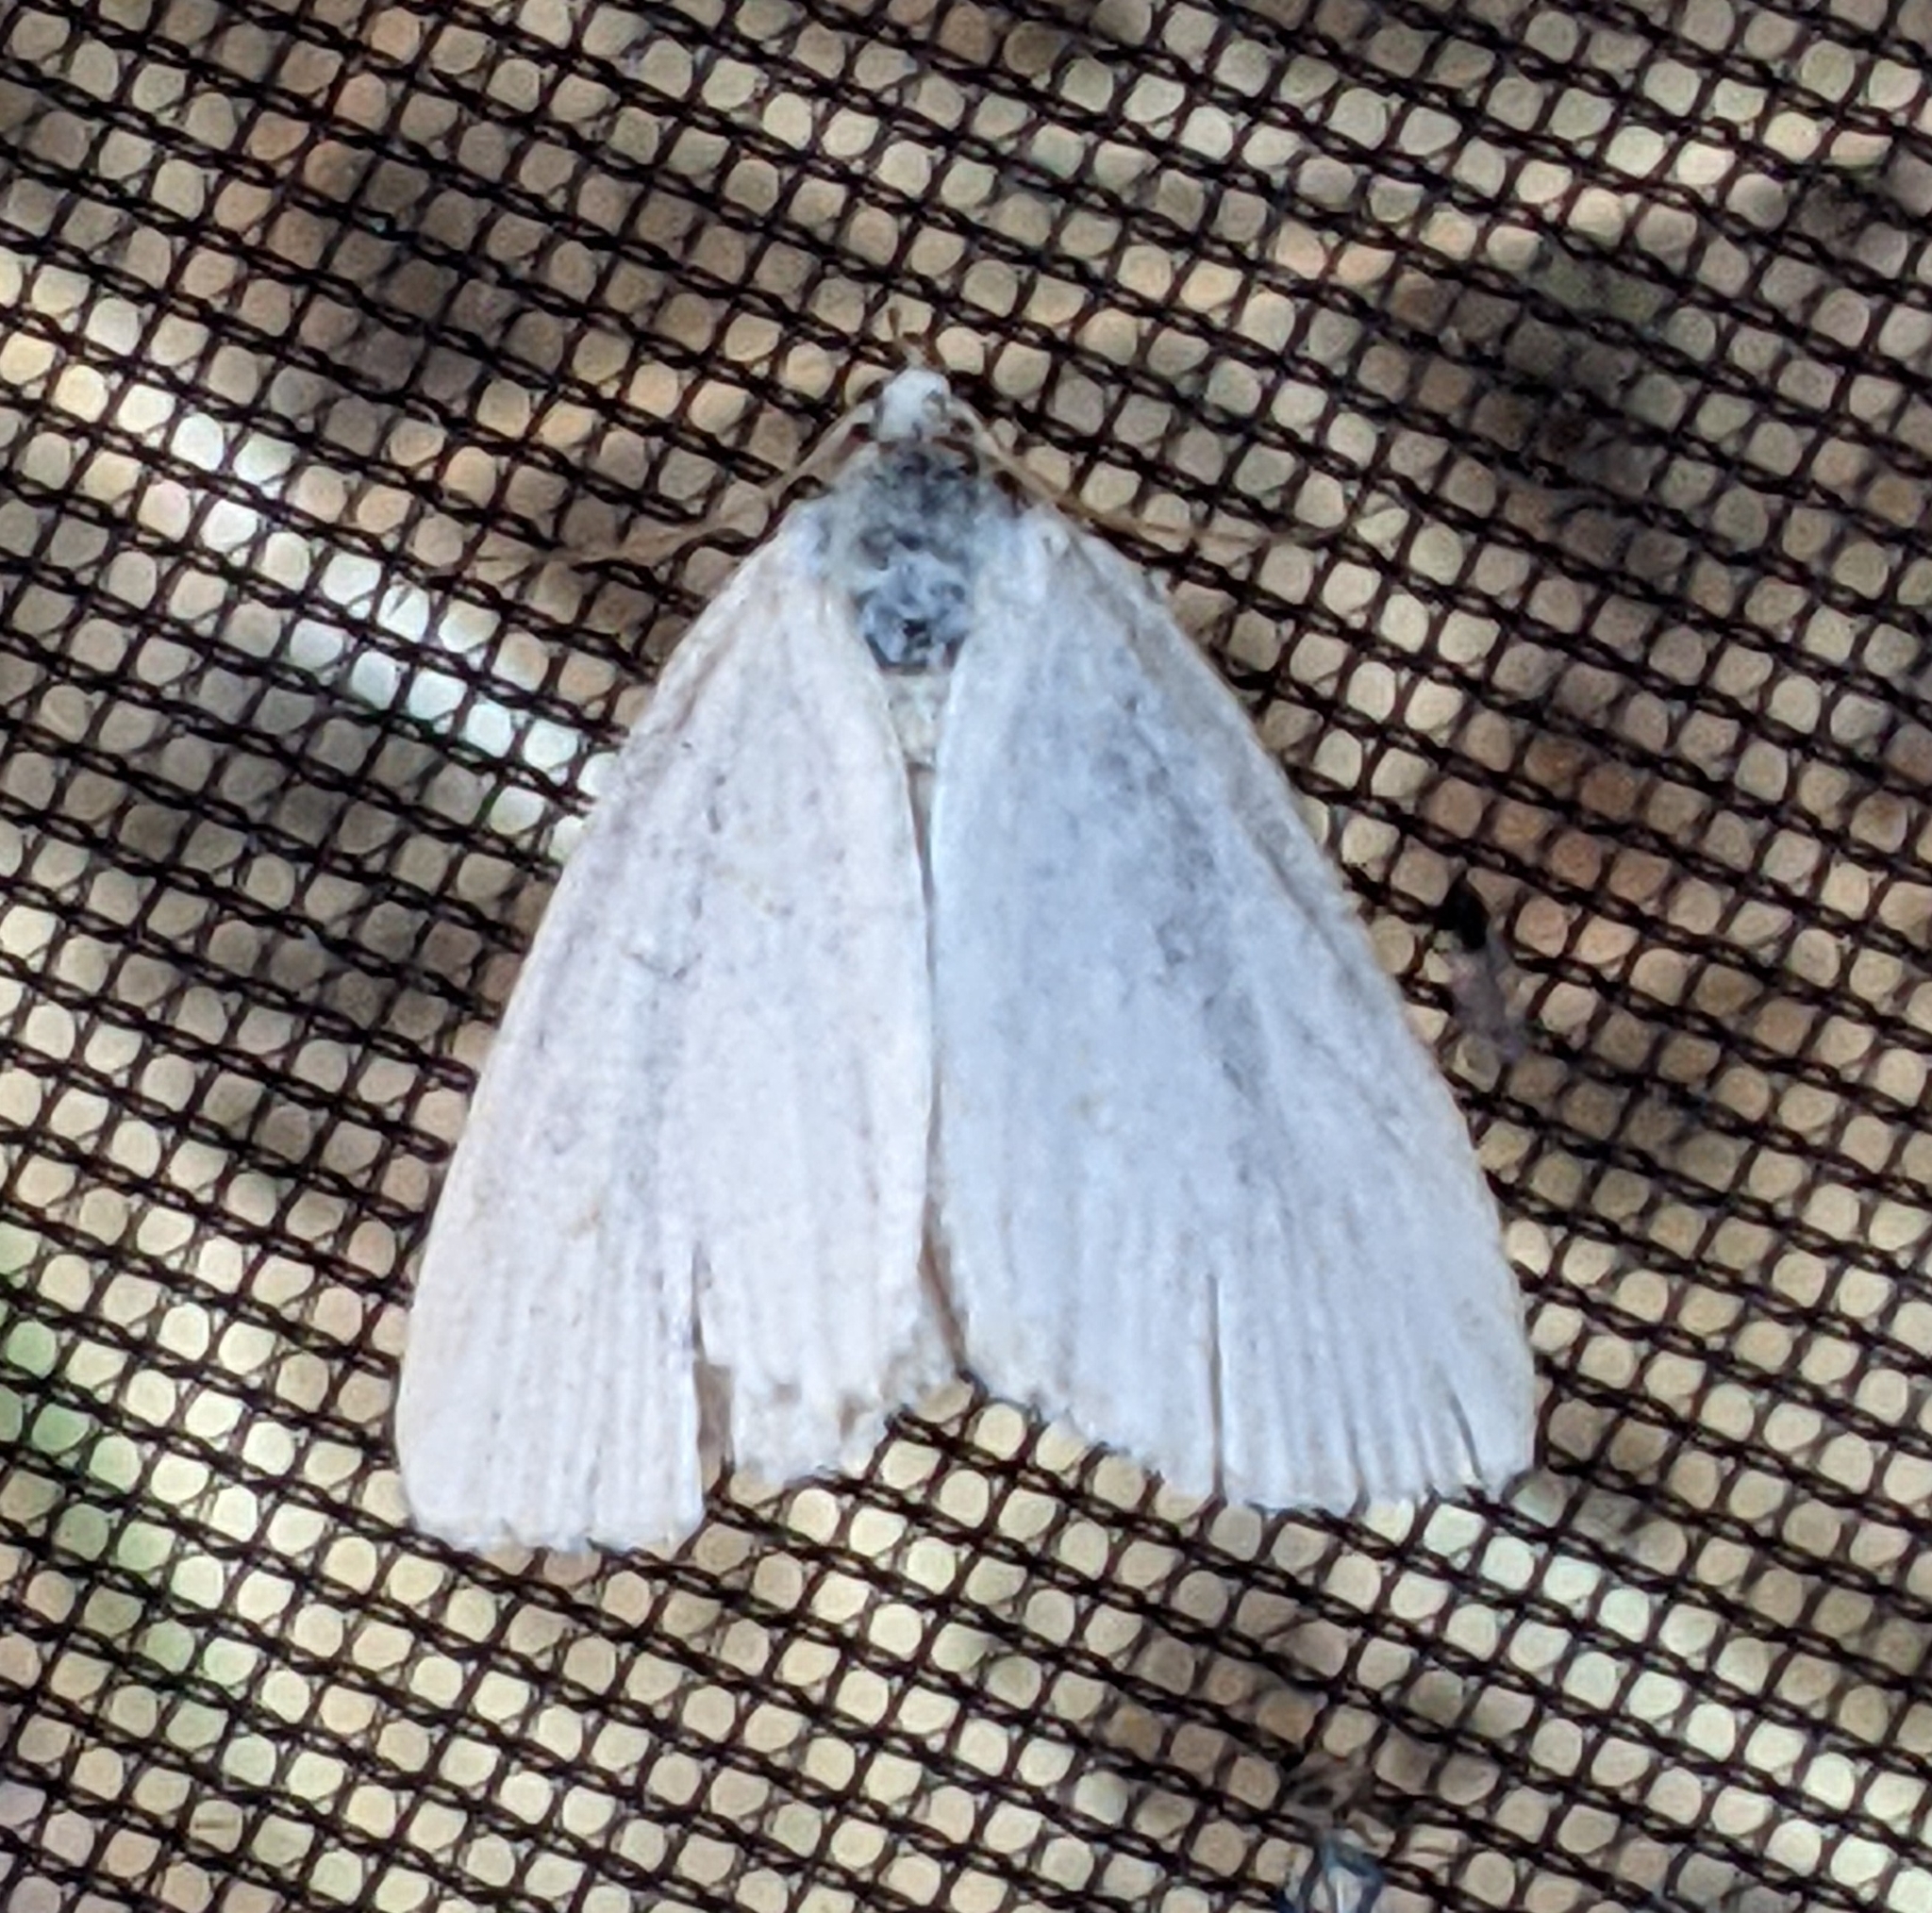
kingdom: Animalia
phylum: Arthropoda
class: Insecta
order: Lepidoptera
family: Noctuidae
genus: Protodeltote
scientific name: Protodeltote albidula
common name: Pale glyph
